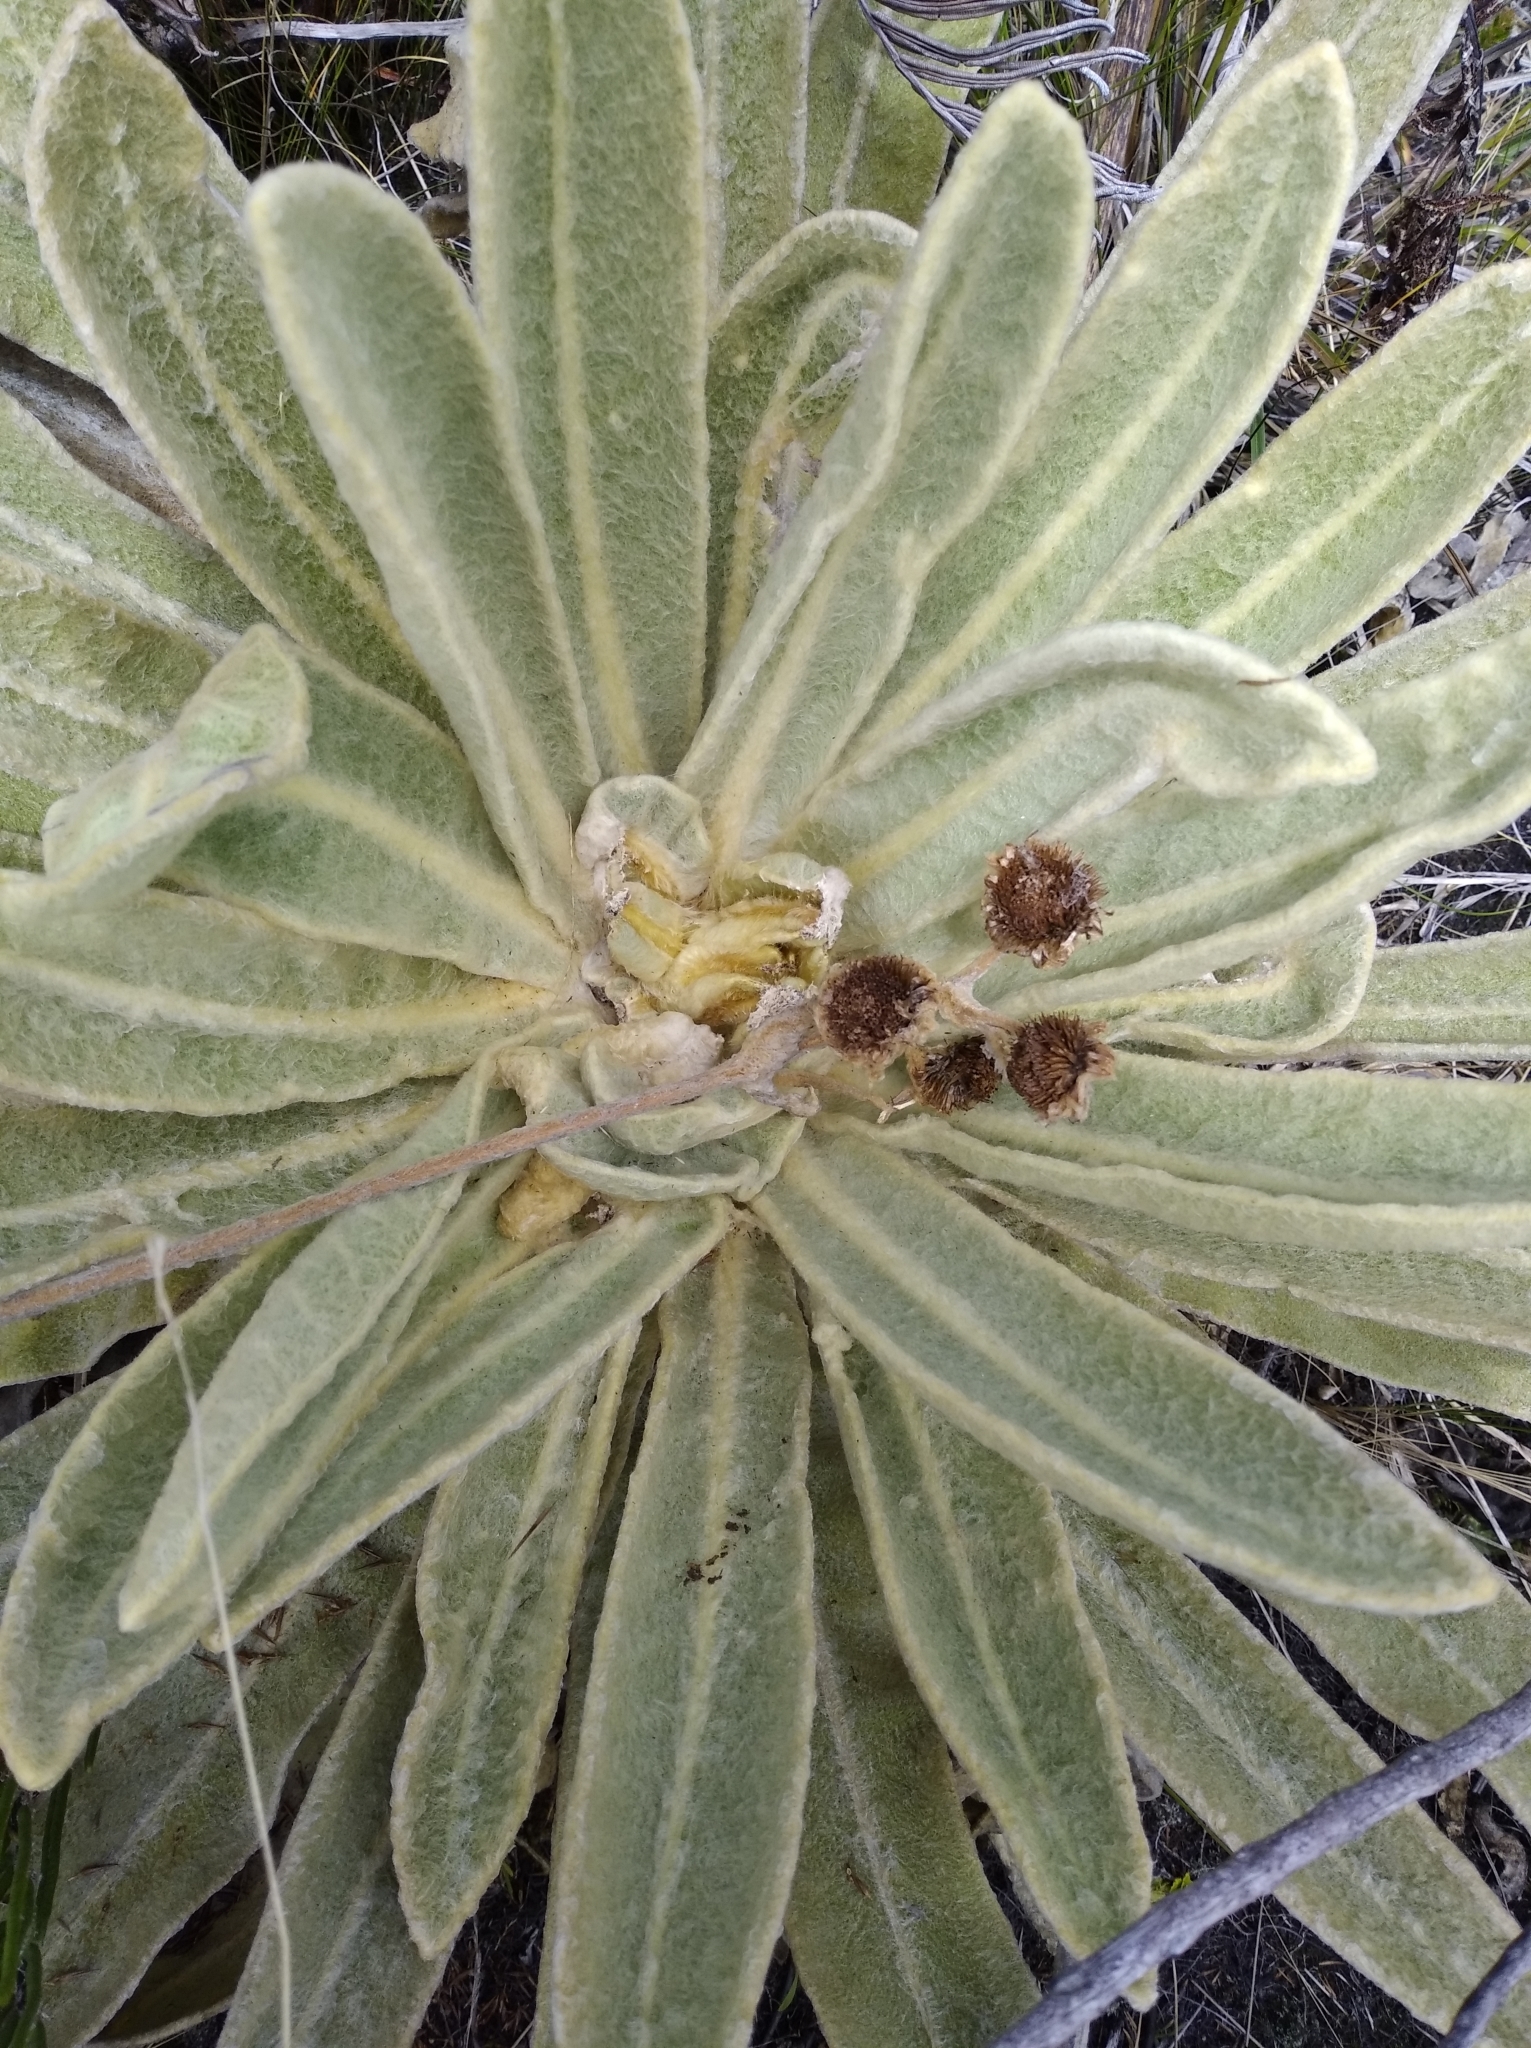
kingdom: Plantae
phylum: Tracheophyta
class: Magnoliopsida
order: Asterales
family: Asteraceae
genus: Espeletia
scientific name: Espeletia aristeguietana
